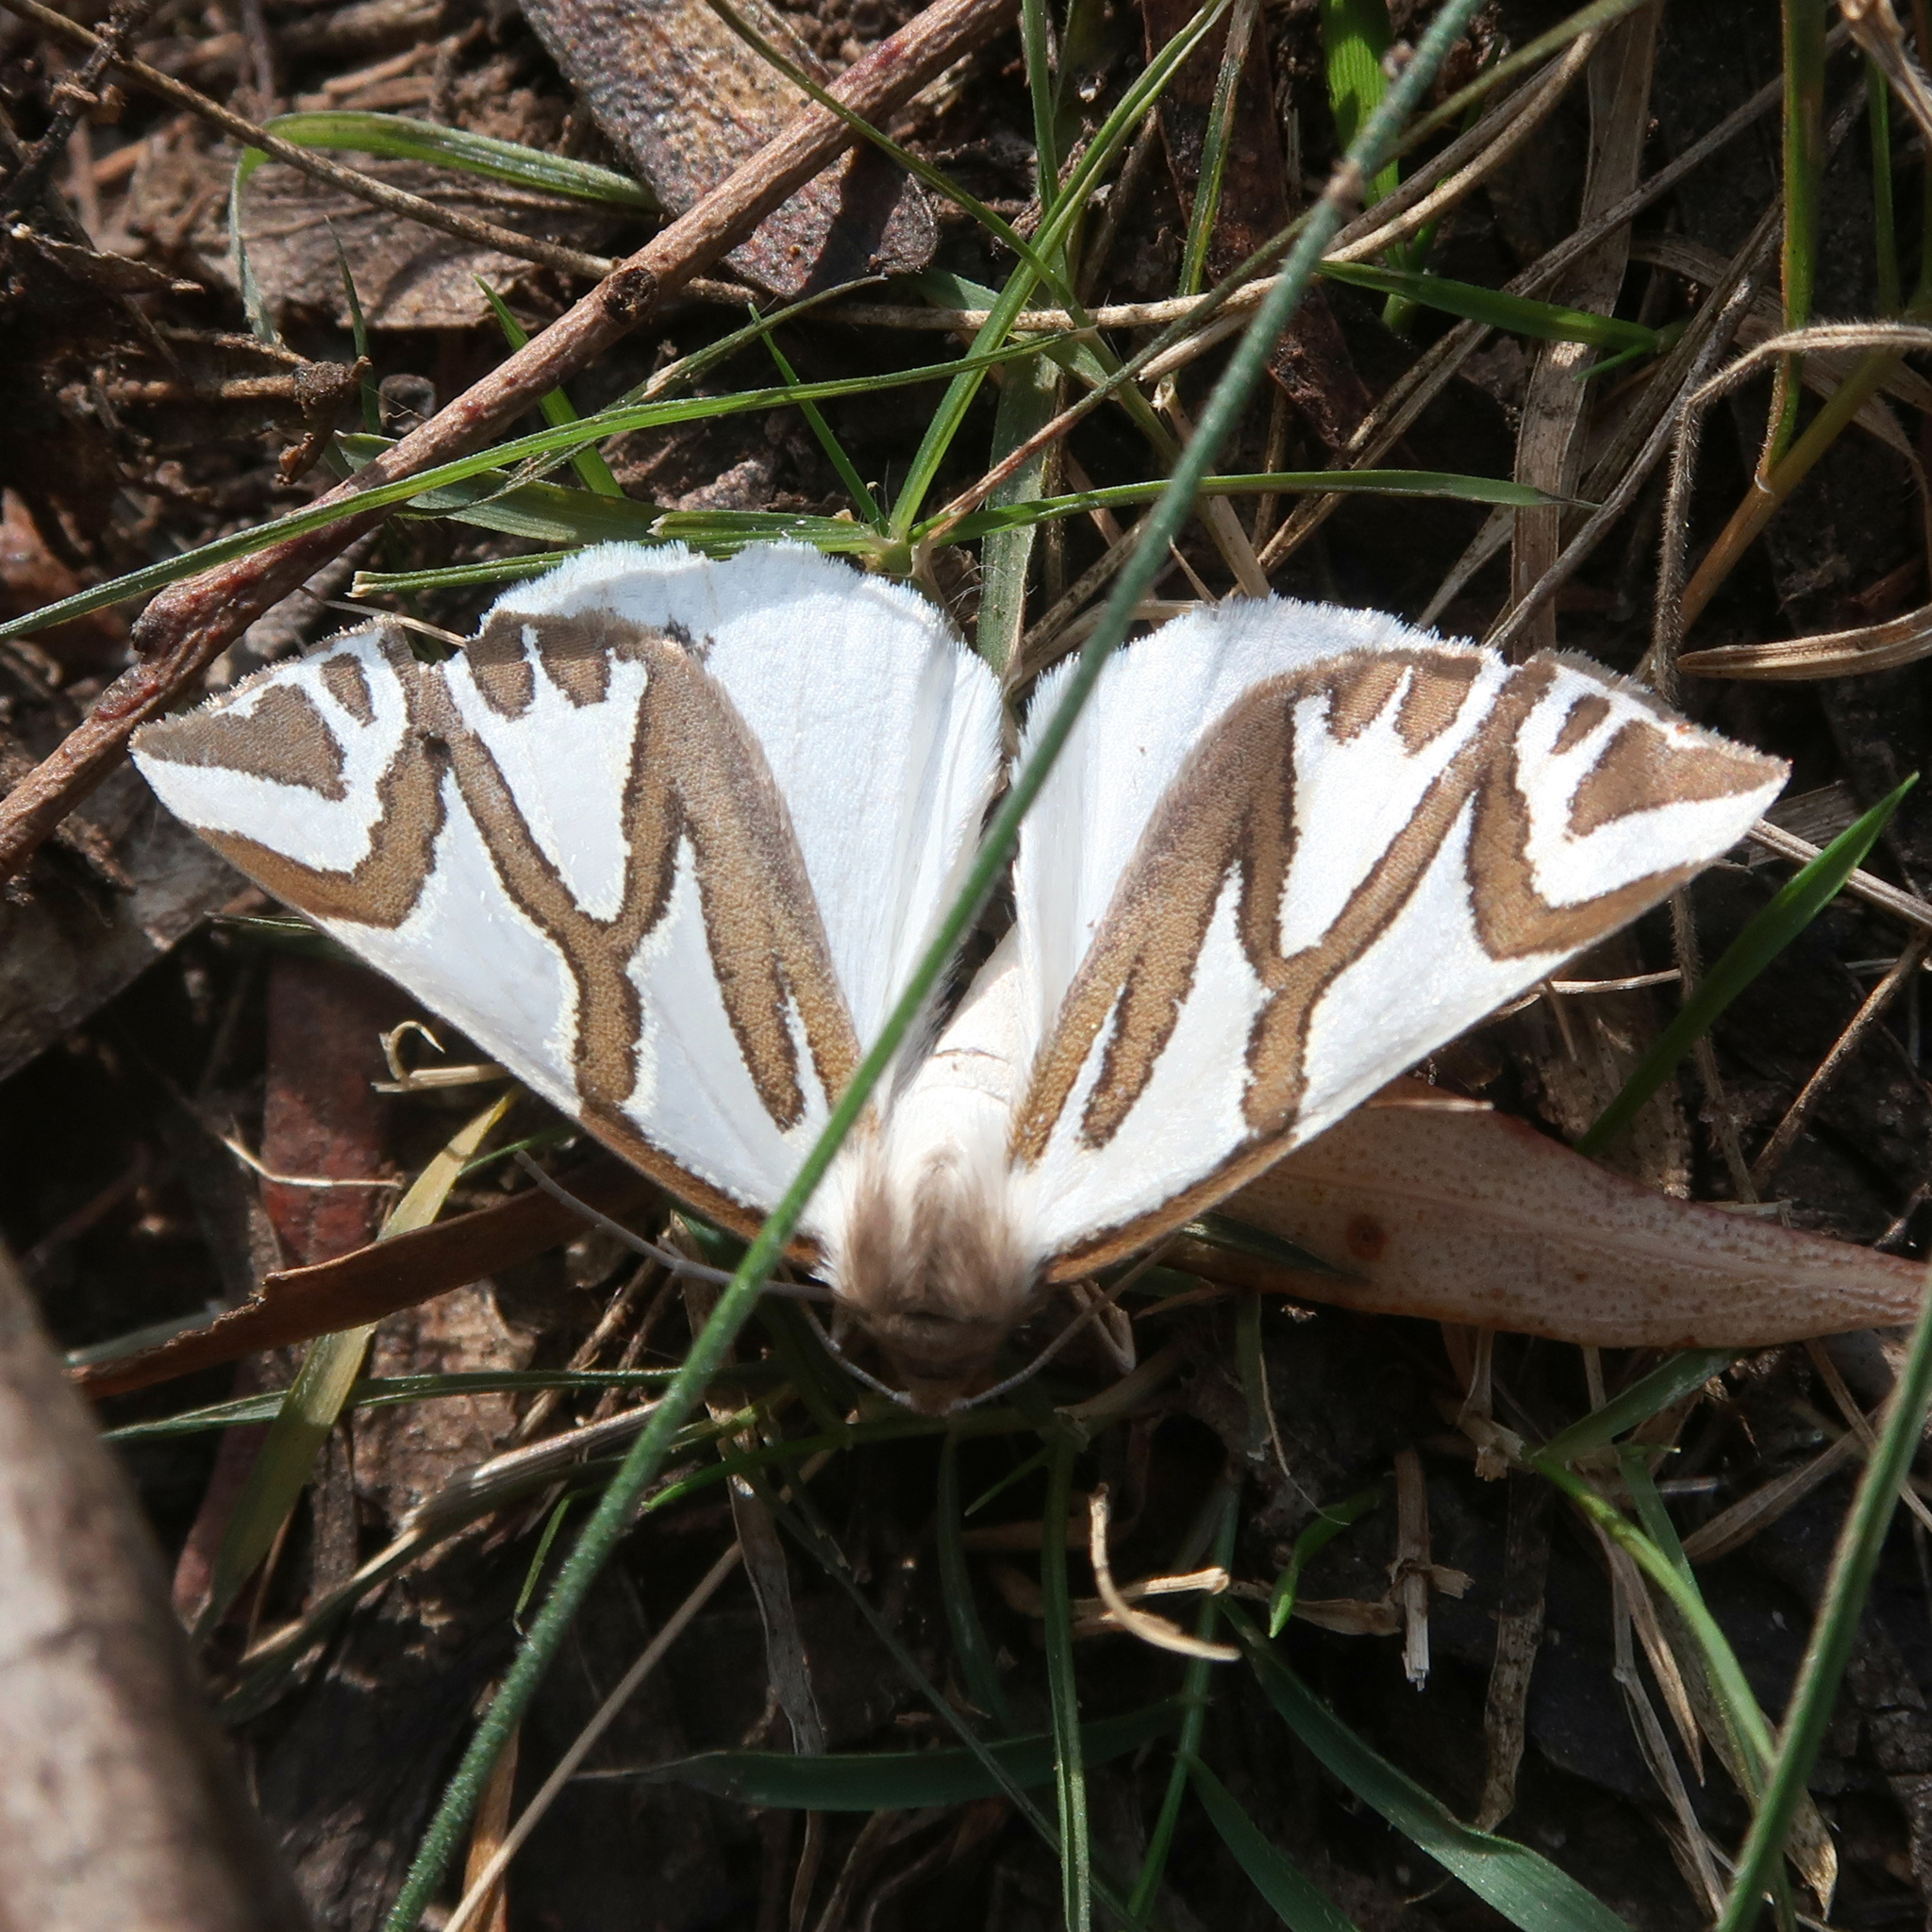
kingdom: Animalia
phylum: Arthropoda
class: Insecta
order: Lepidoptera
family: Geometridae
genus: Thalaina
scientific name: Thalaina inscripta
